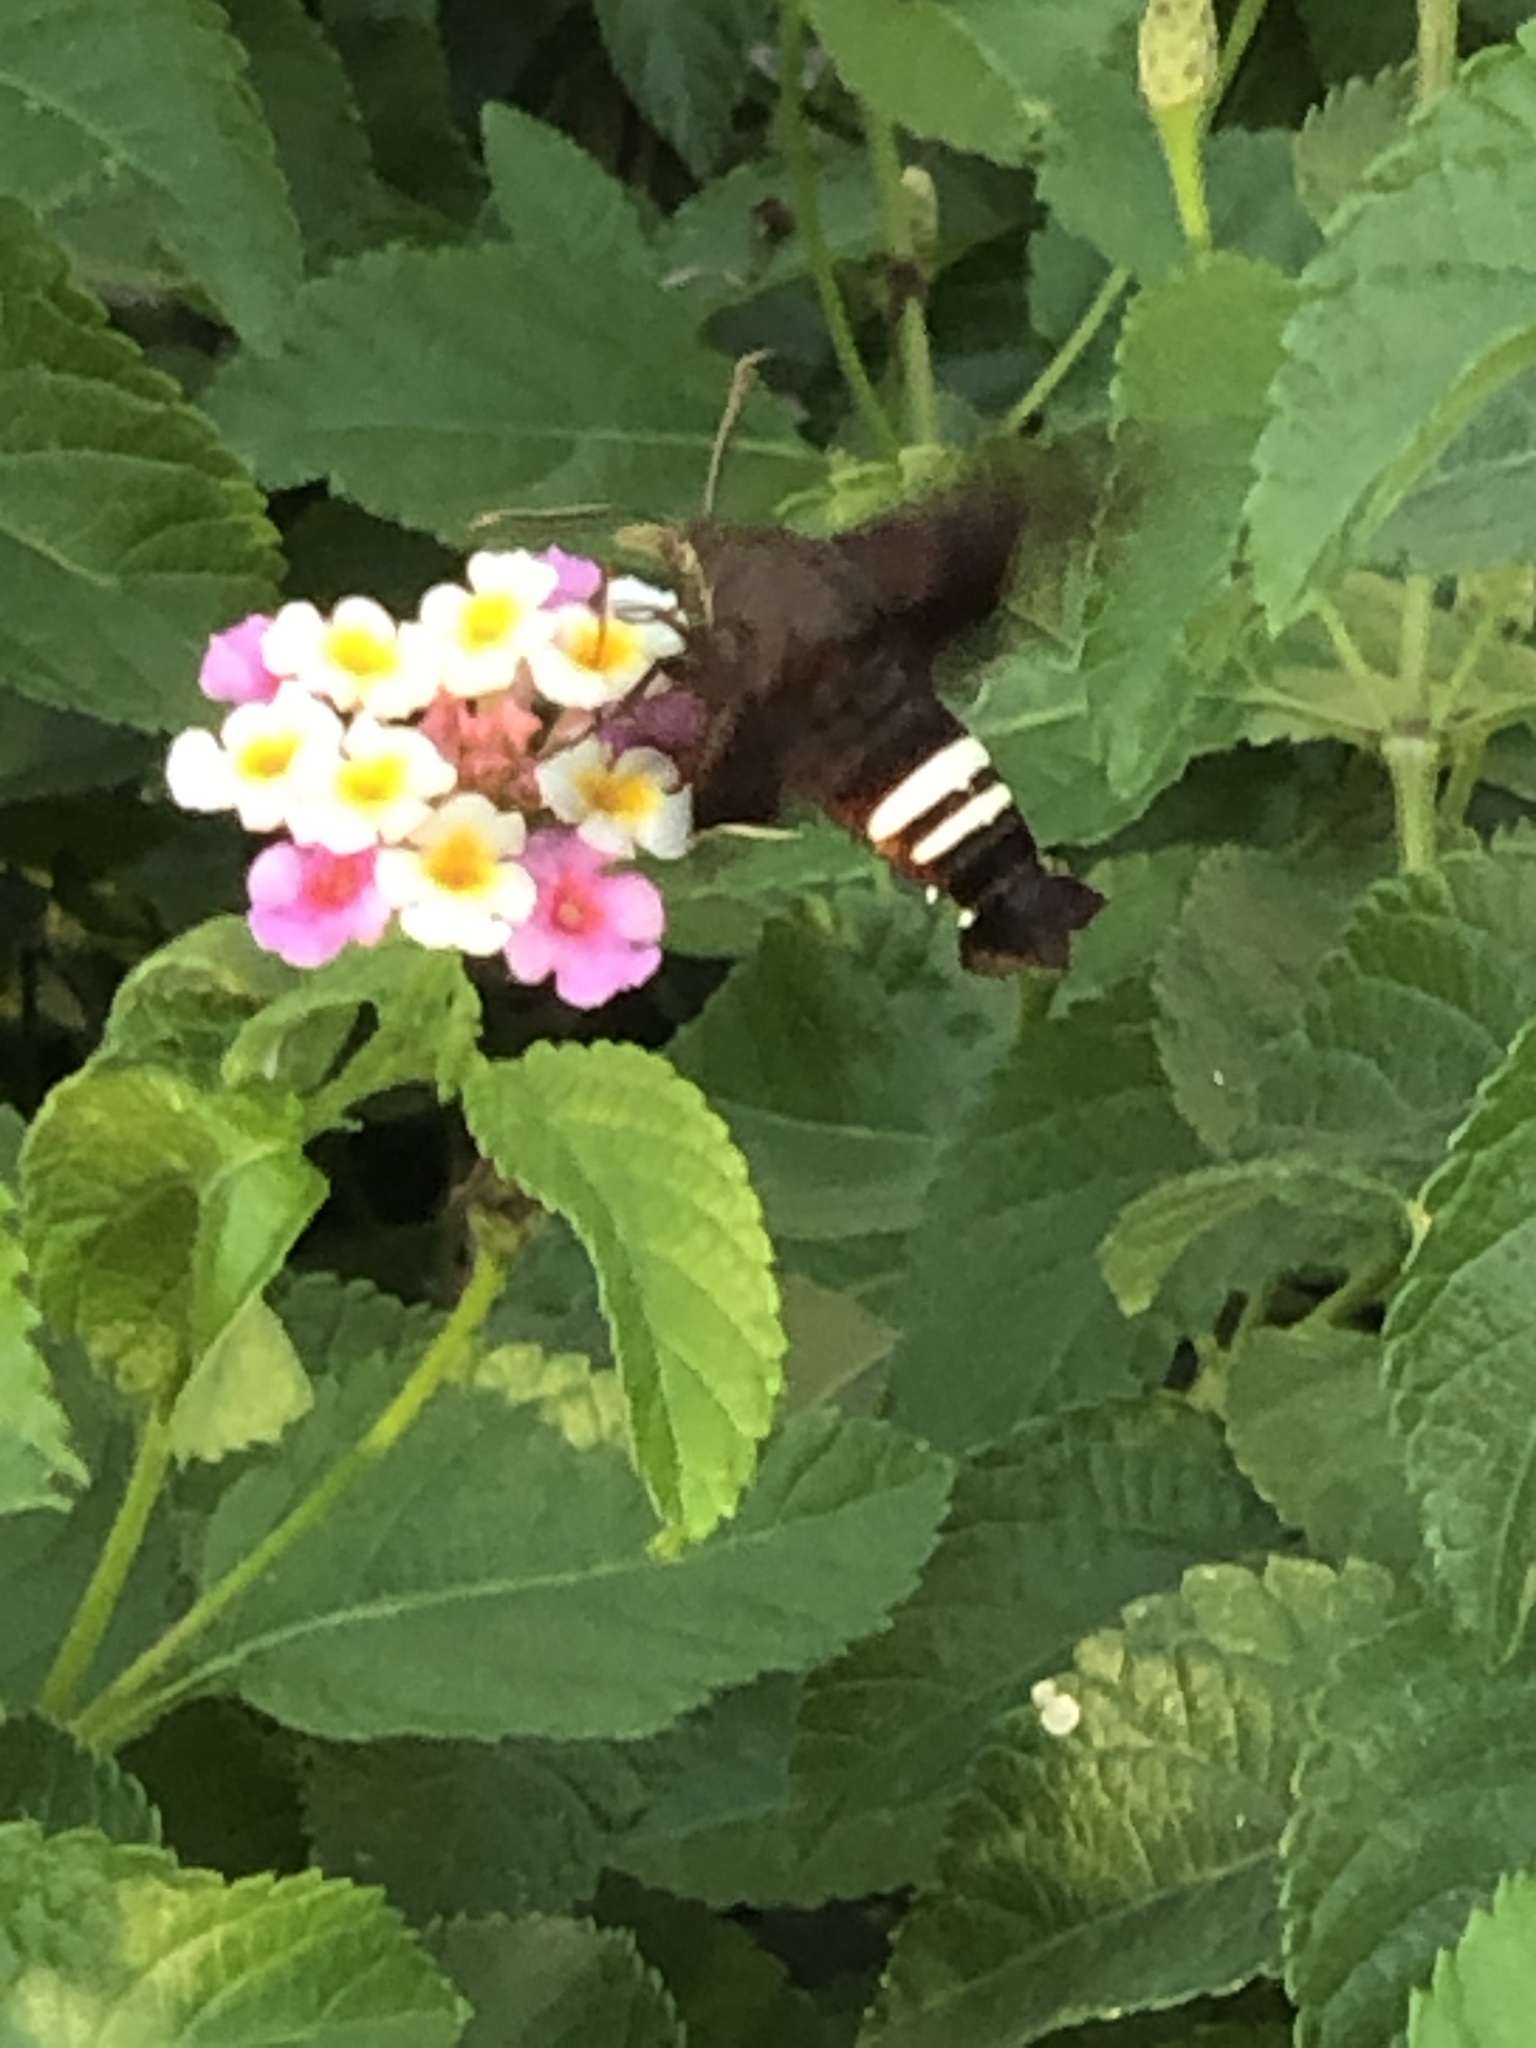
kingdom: Animalia
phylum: Arthropoda
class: Insecta
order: Lepidoptera
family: Sphingidae
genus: Amphion
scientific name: Amphion floridensis
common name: Nessus sphinx
